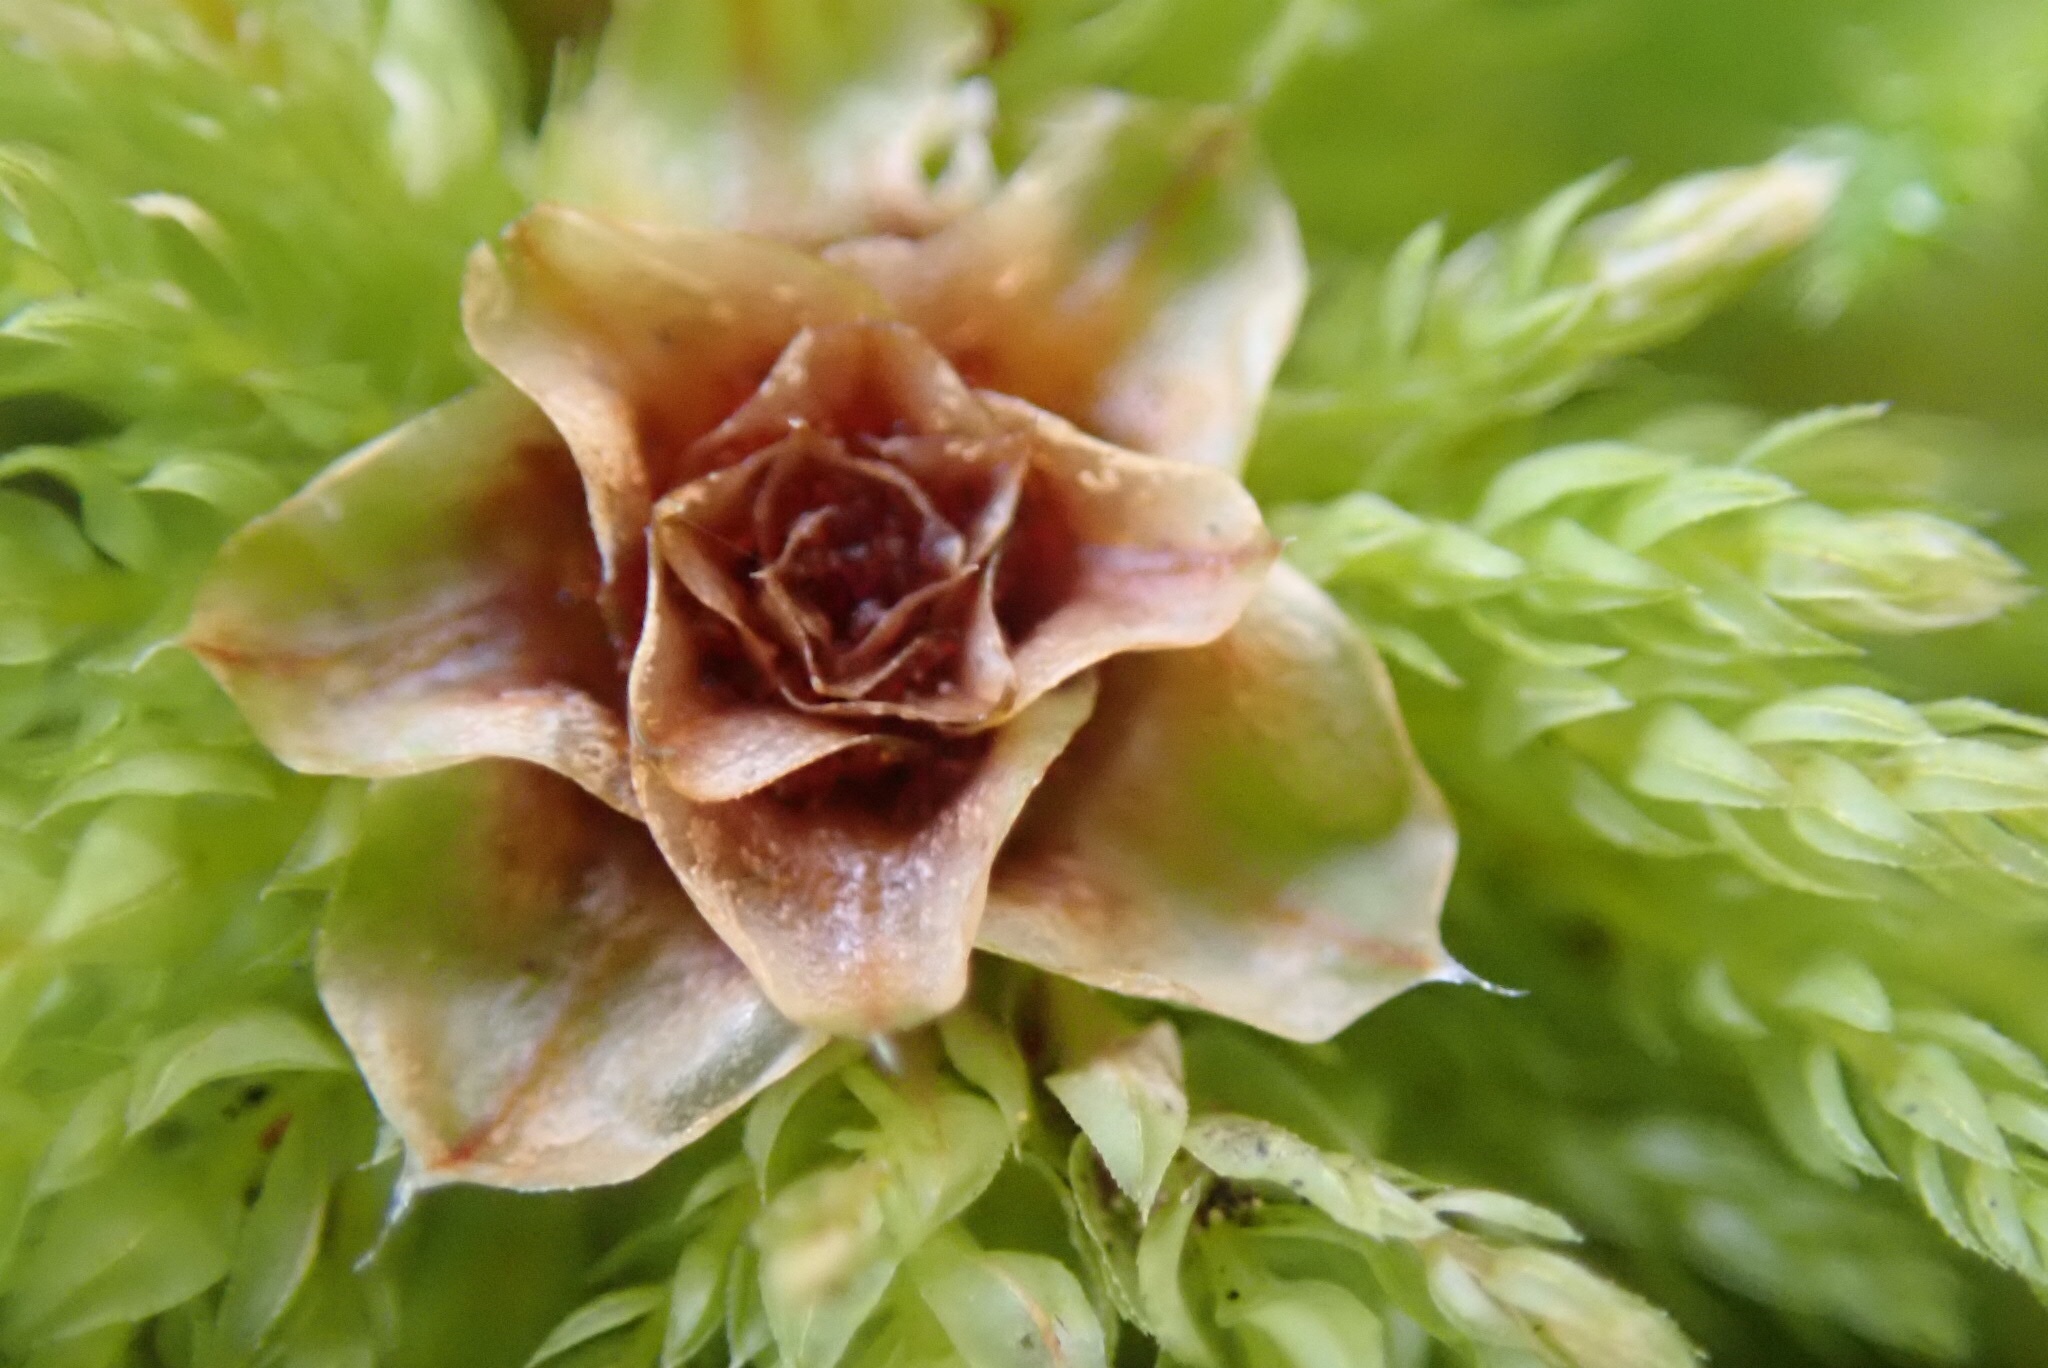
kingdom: Plantae
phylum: Bryophyta
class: Bryopsida
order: Bryales
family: Mniaceae
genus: Leucolepis
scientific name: Leucolepis acanthoneura
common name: Leucolepis umbrella moss
